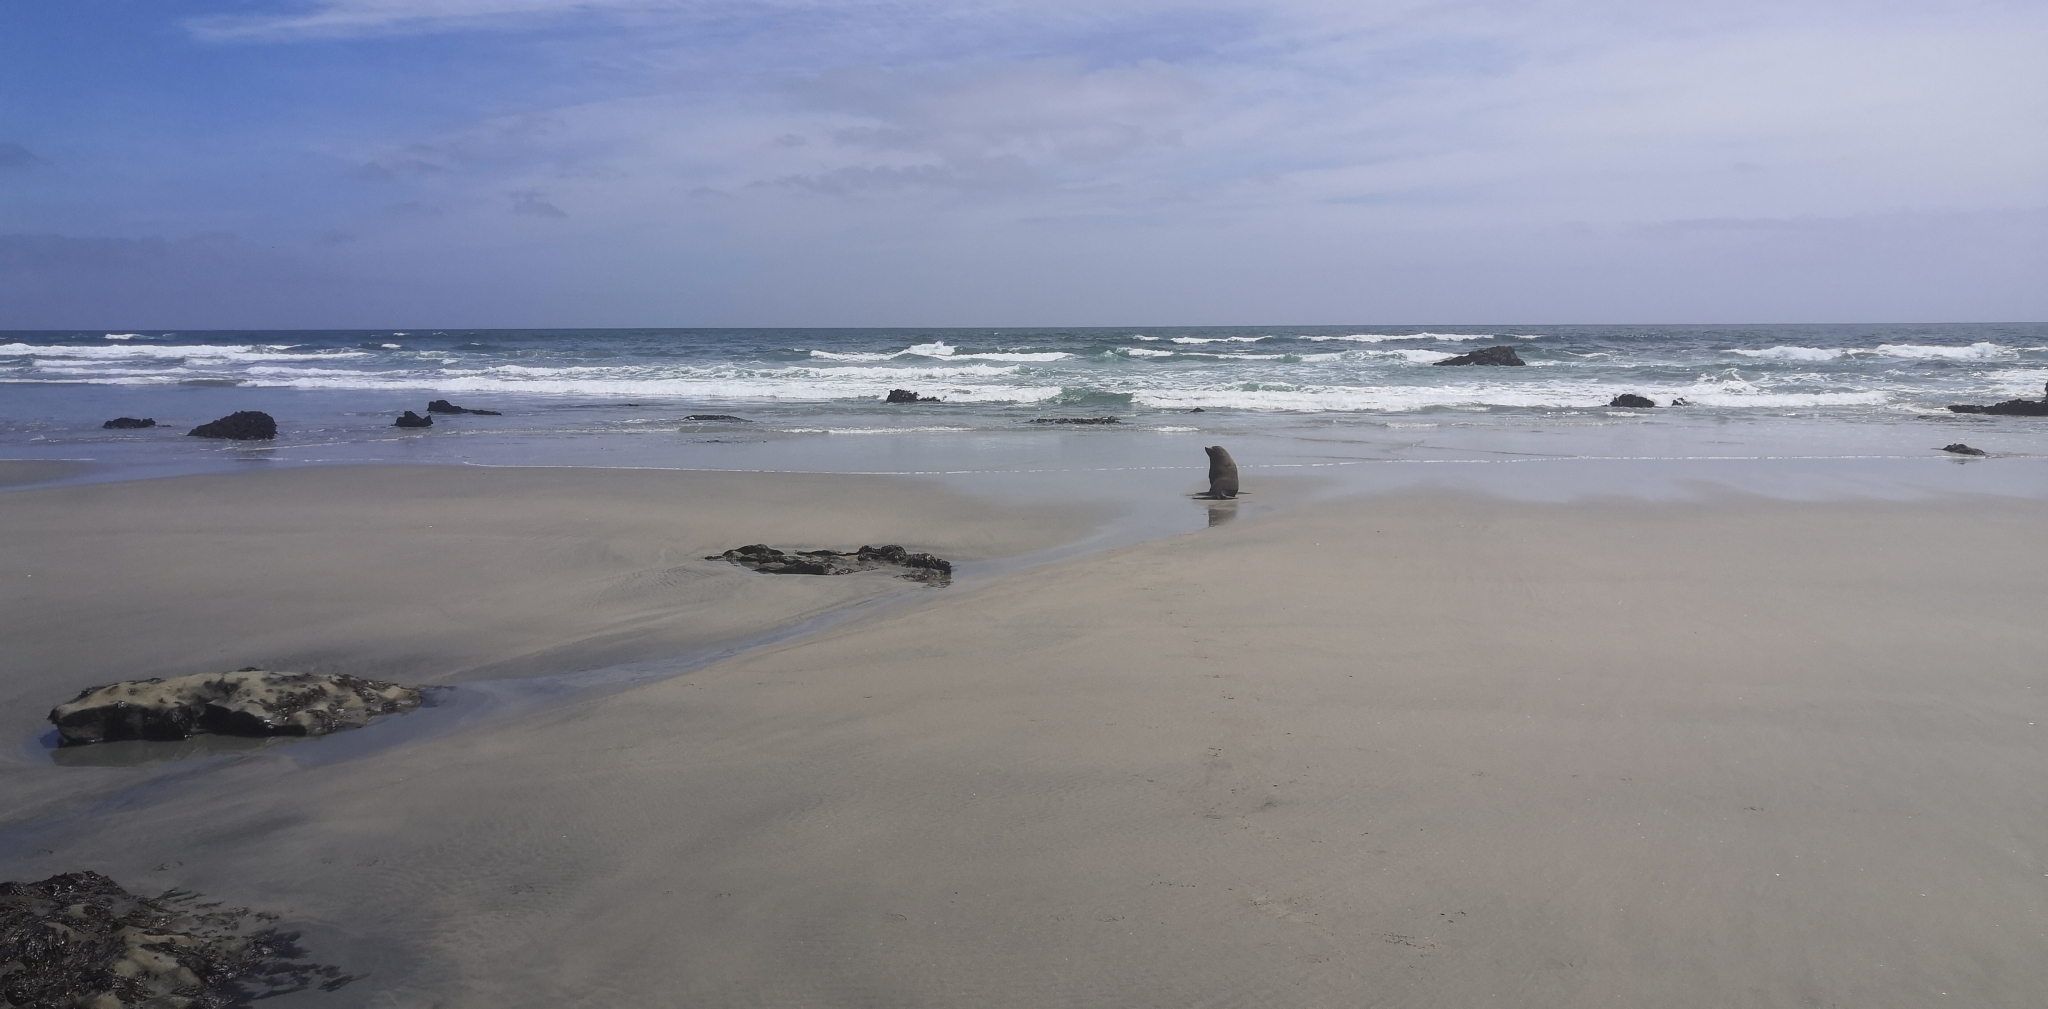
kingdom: Animalia
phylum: Chordata
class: Mammalia
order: Carnivora
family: Otariidae
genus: Arctocephalus
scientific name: Arctocephalus forsteri
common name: New zealand fur seal
